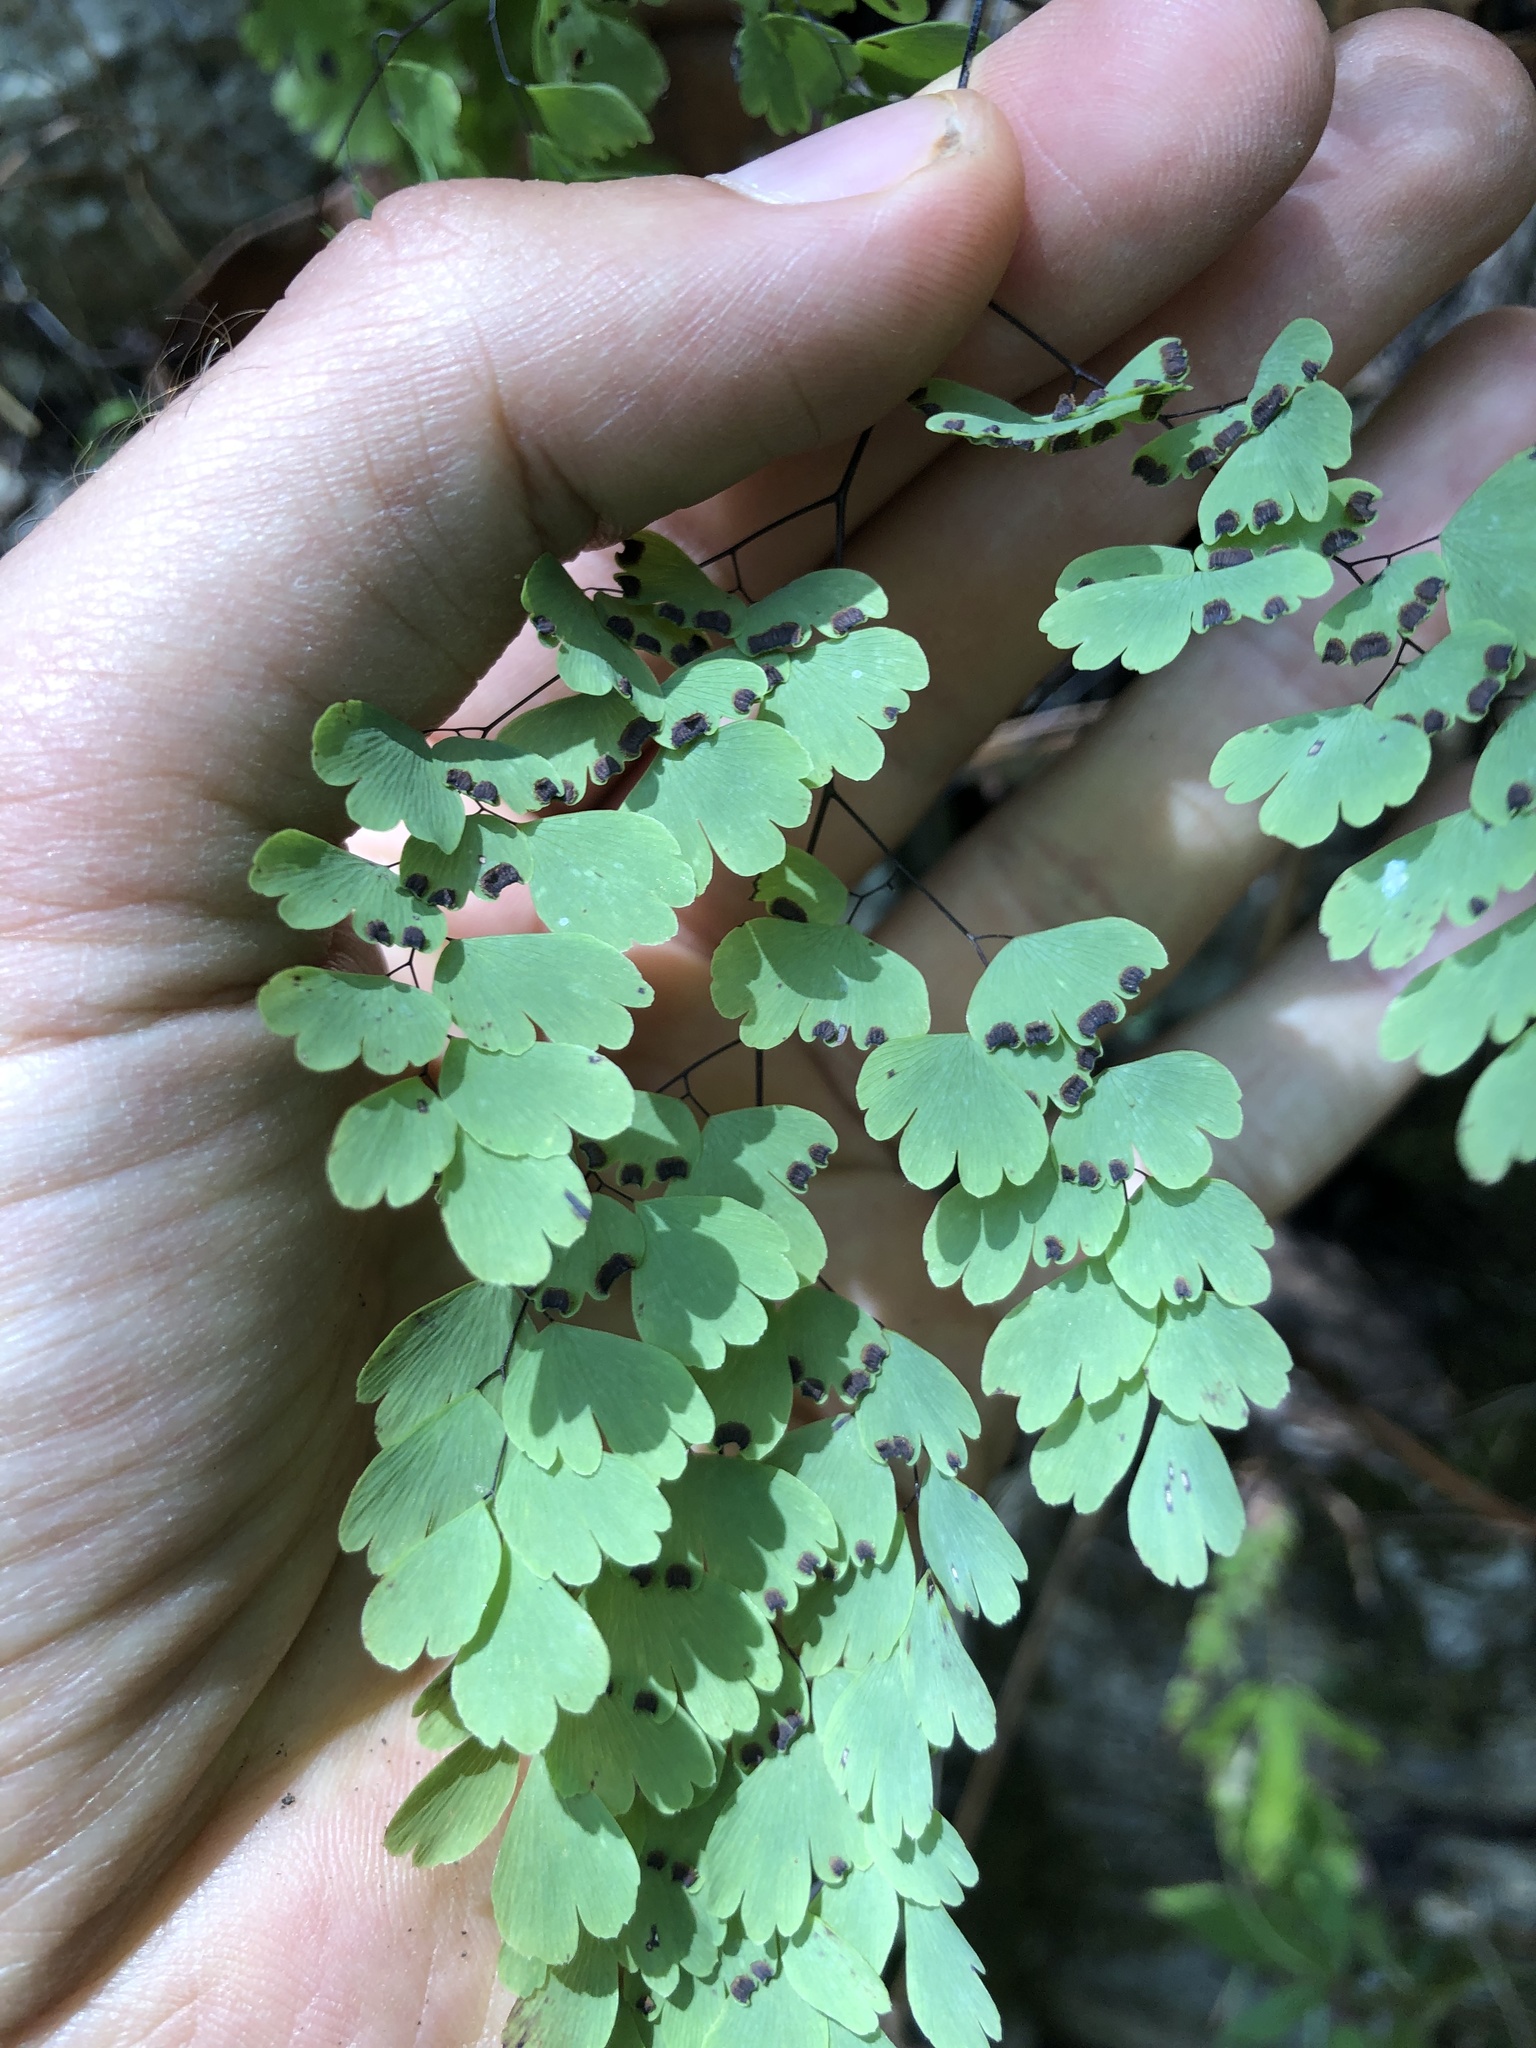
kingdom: Plantae
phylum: Tracheophyta
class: Polypodiopsida
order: Polypodiales
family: Pteridaceae
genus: Adiantum
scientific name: Adiantum andicola
